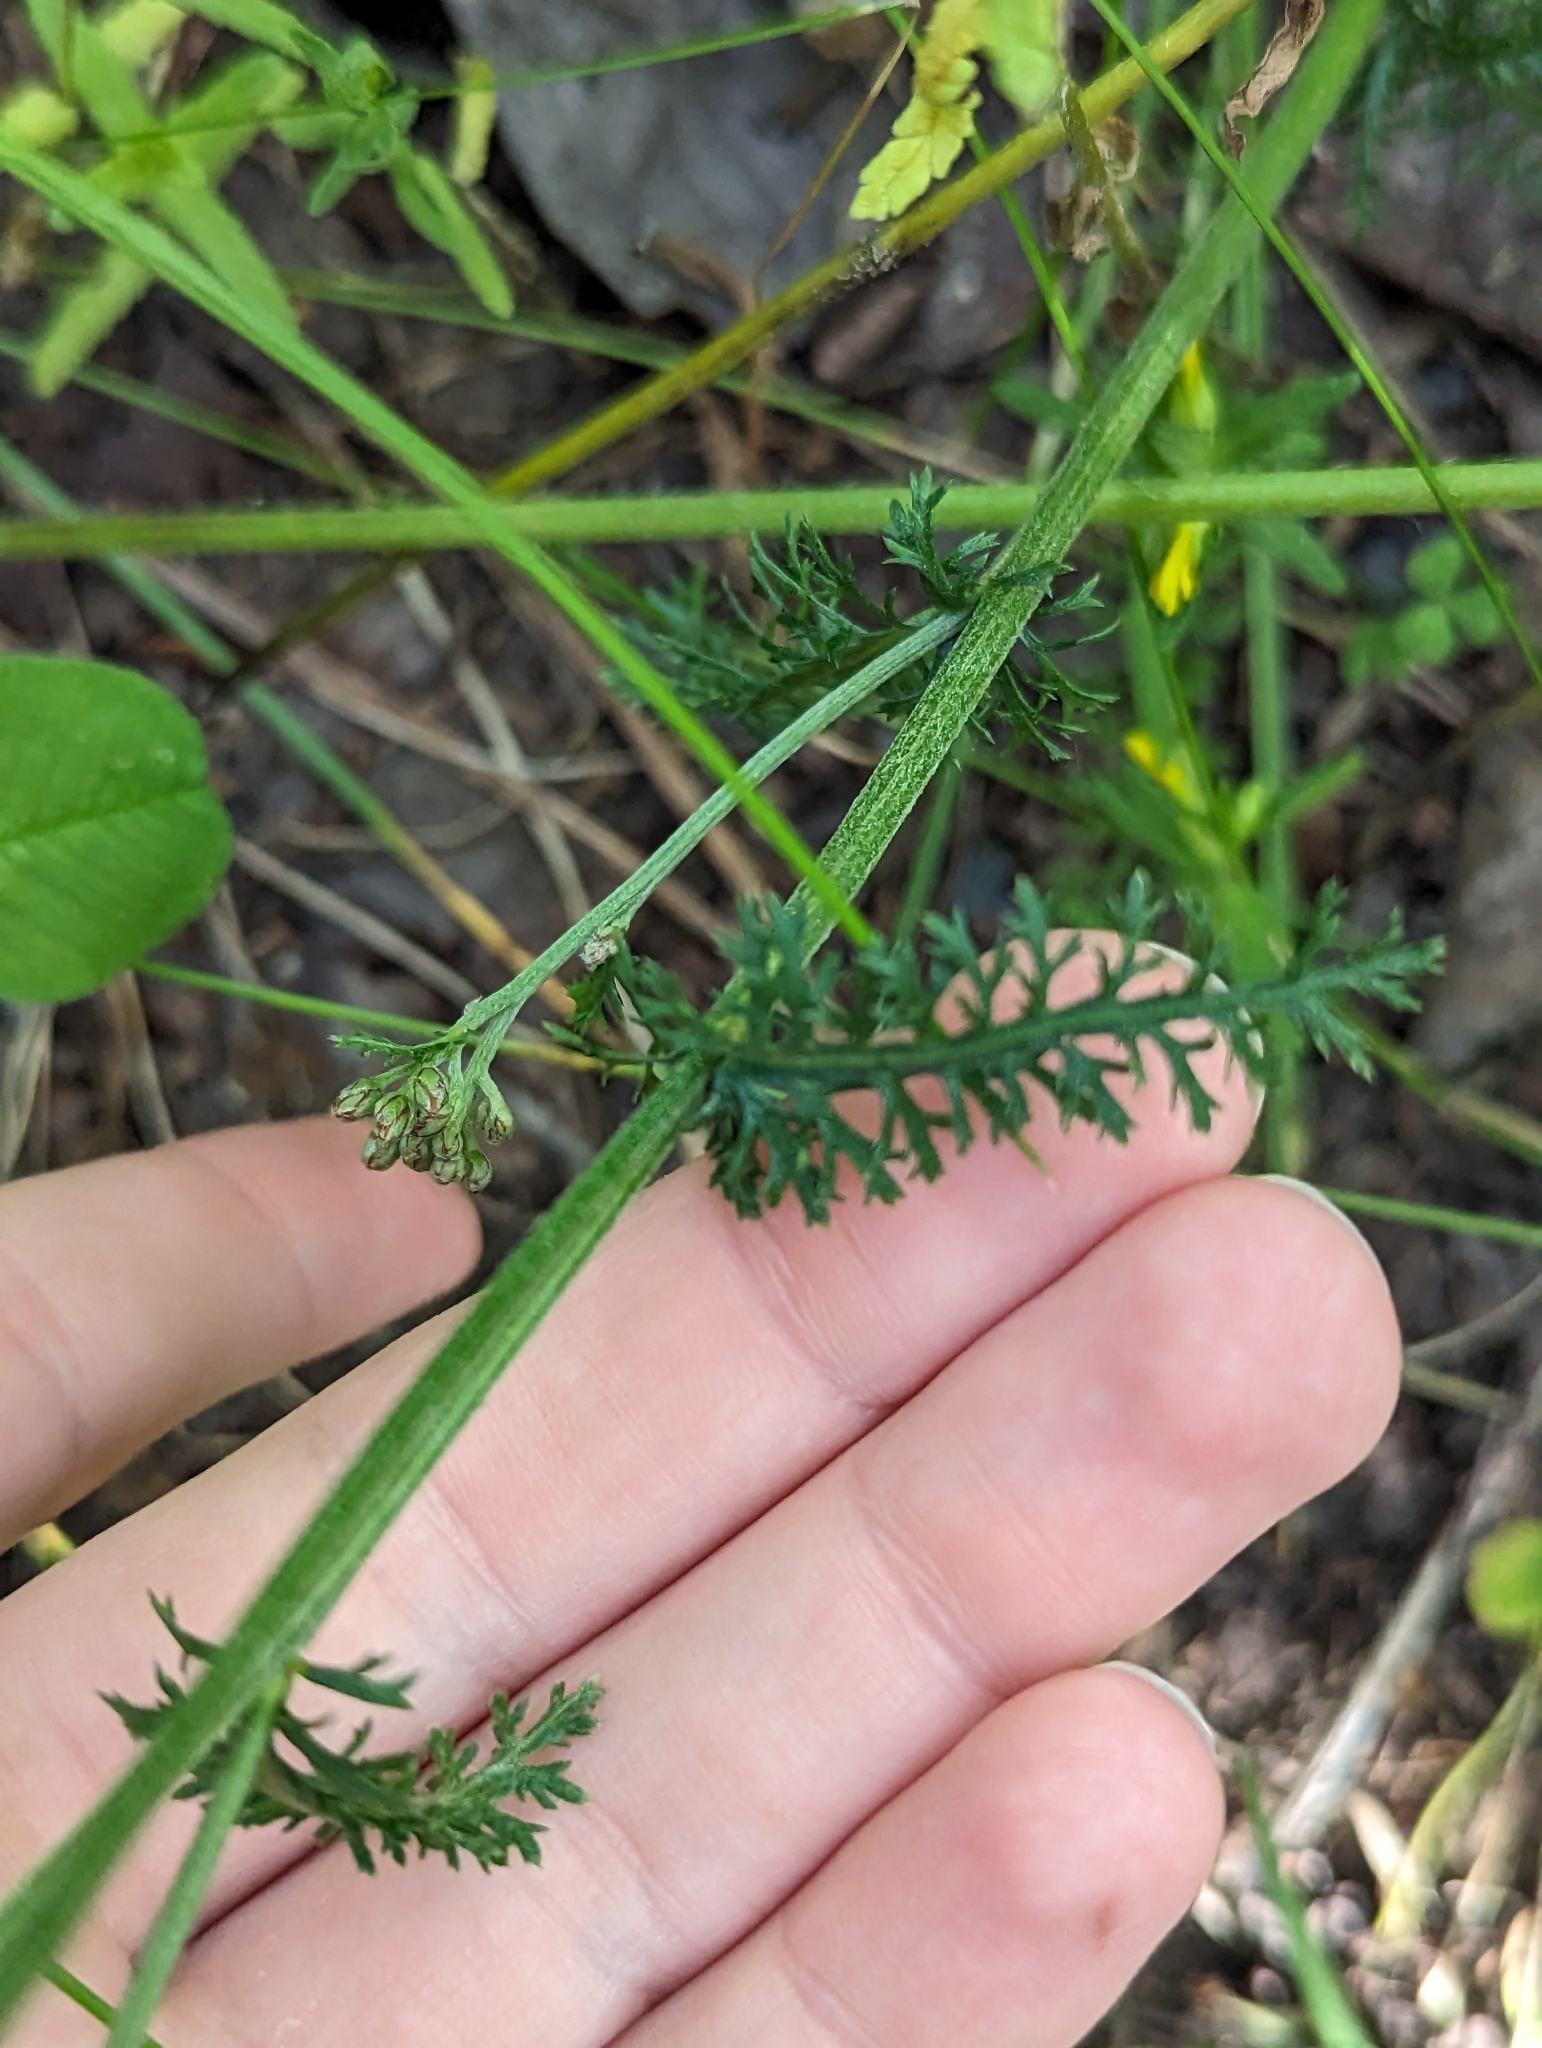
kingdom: Plantae
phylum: Tracheophyta
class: Magnoliopsida
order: Asterales
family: Asteraceae
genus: Achillea
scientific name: Achillea millefolium
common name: Yarrow
